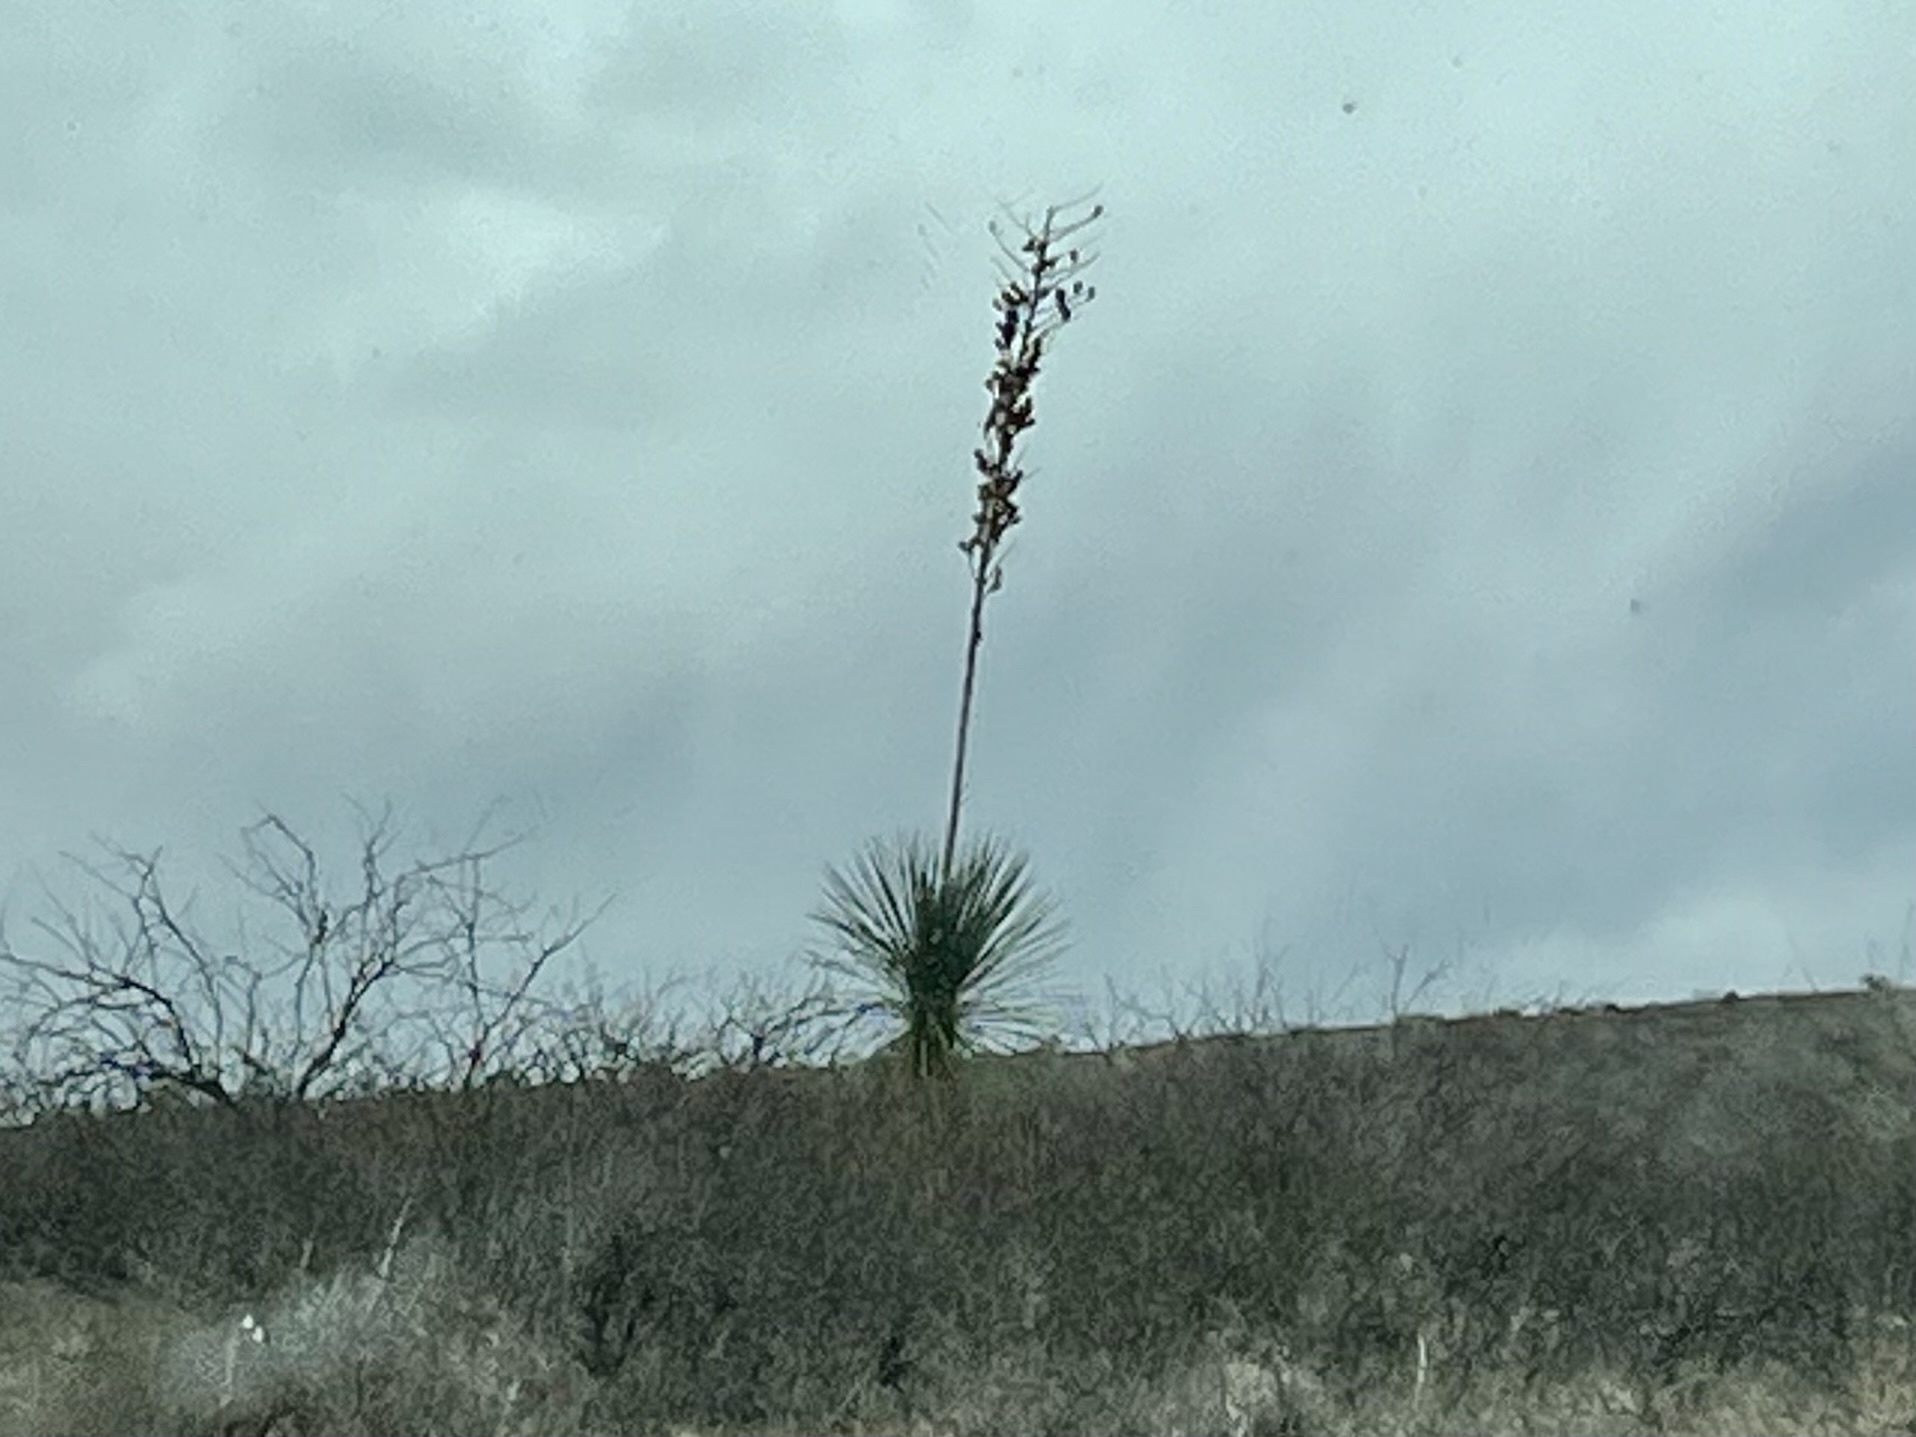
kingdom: Plantae
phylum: Tracheophyta
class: Liliopsida
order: Asparagales
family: Asparagaceae
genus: Yucca
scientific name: Yucca elata
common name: Palmella
